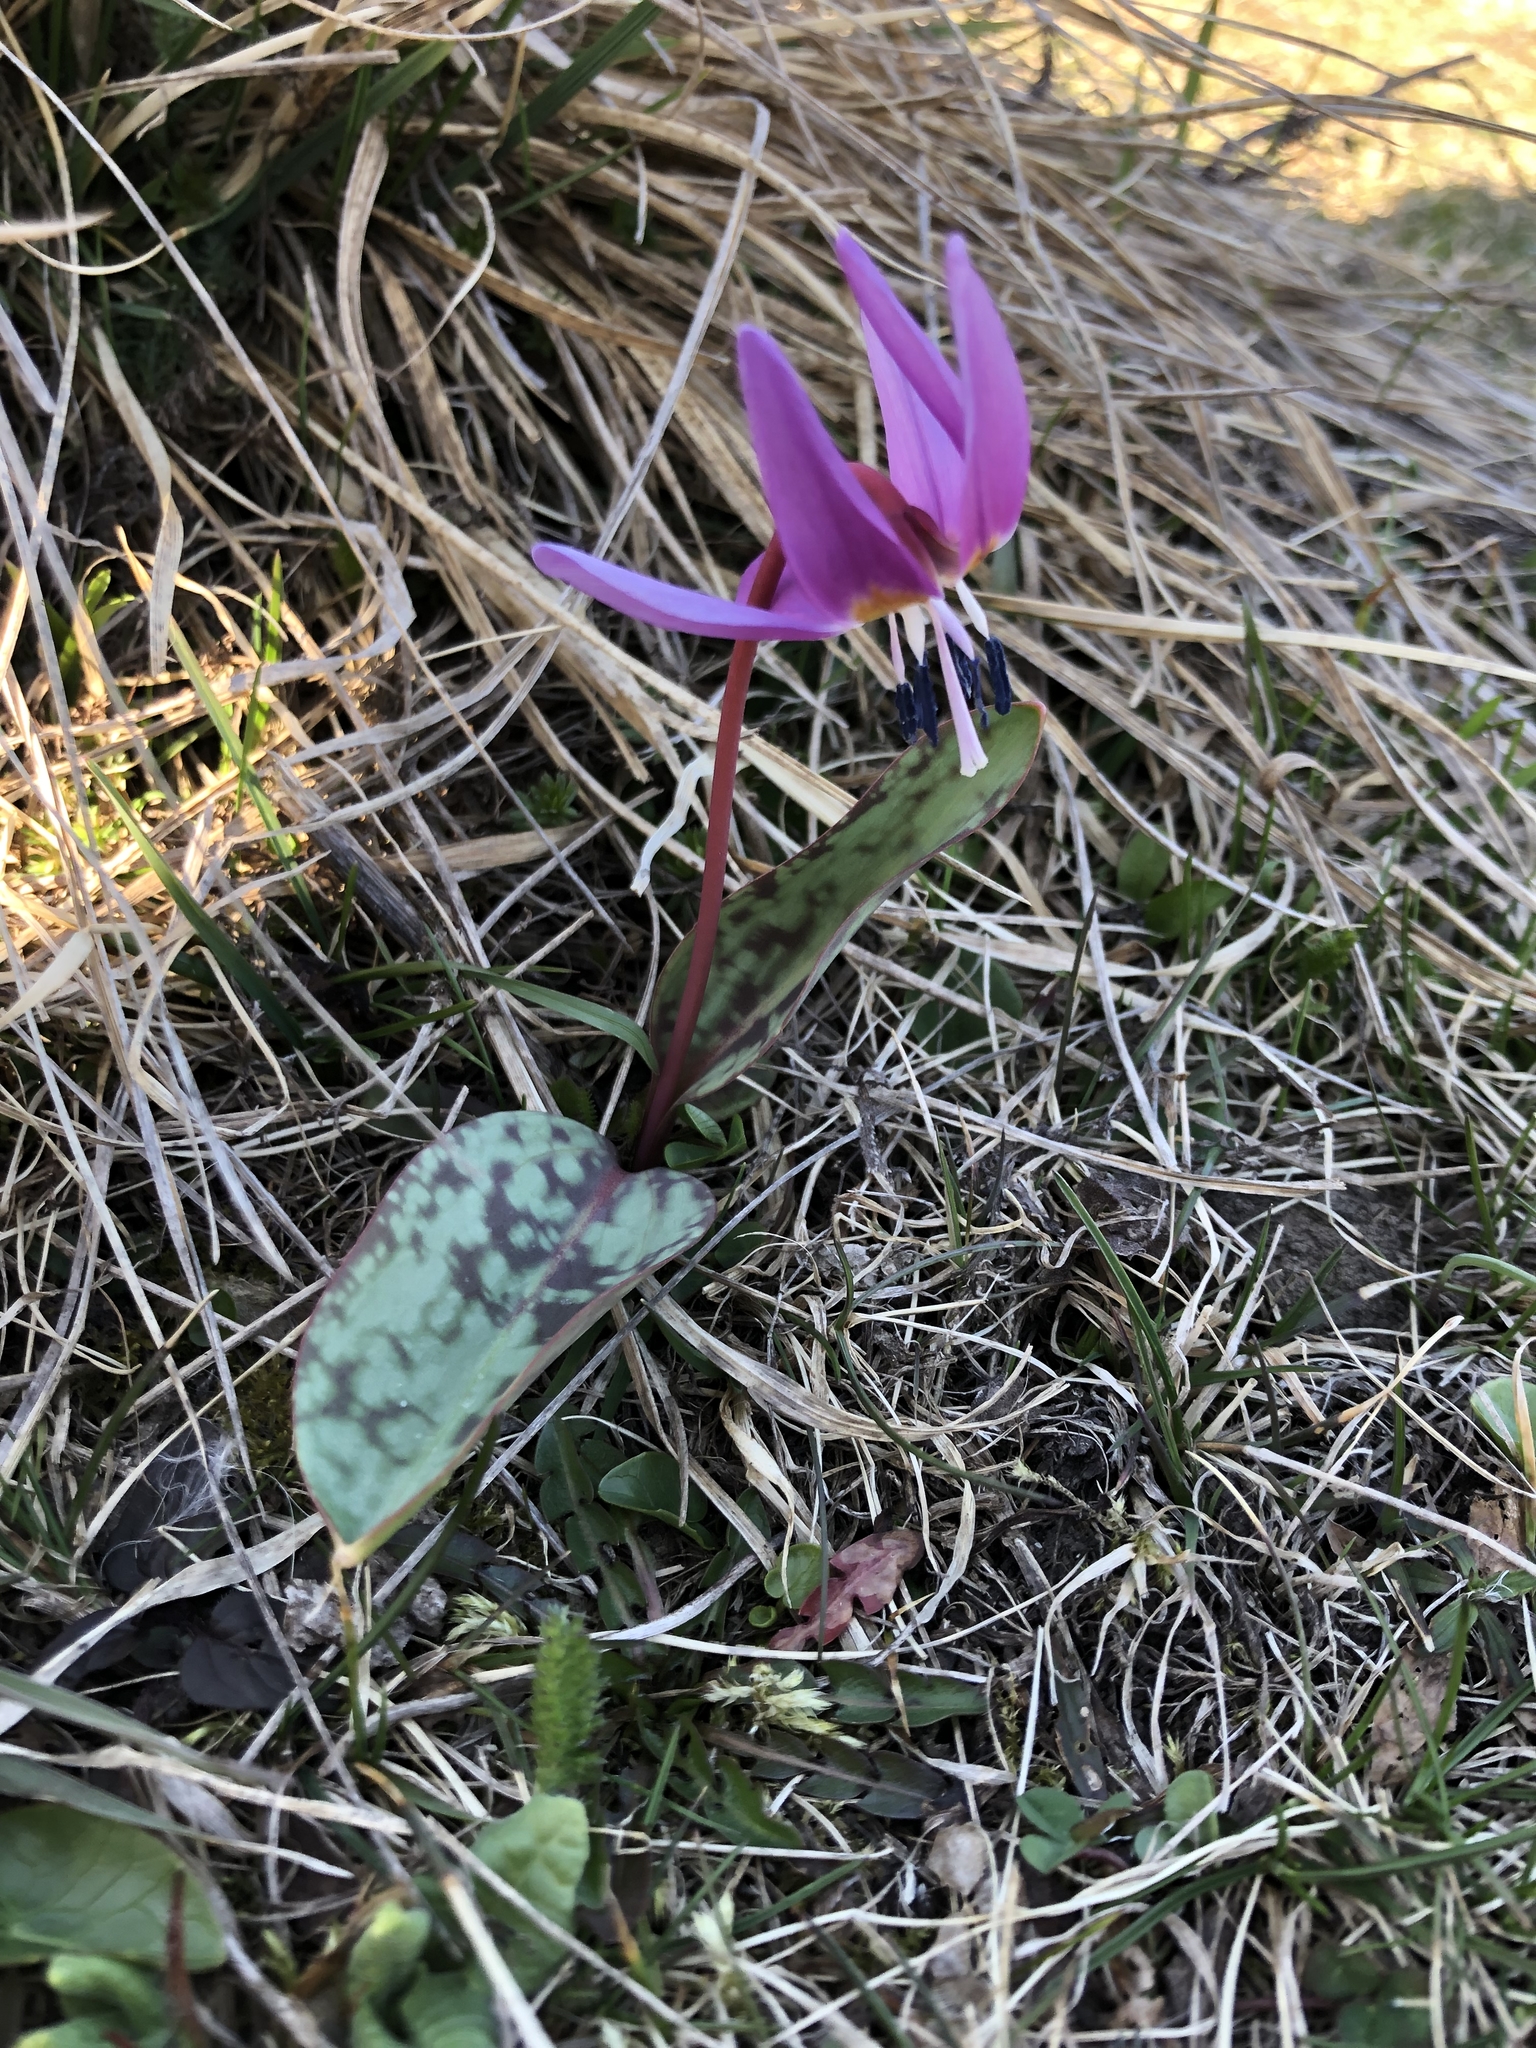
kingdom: Plantae
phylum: Tracheophyta
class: Liliopsida
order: Liliales
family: Liliaceae
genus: Erythronium
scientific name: Erythronium dens-canis
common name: Dog's-tooth-violet
